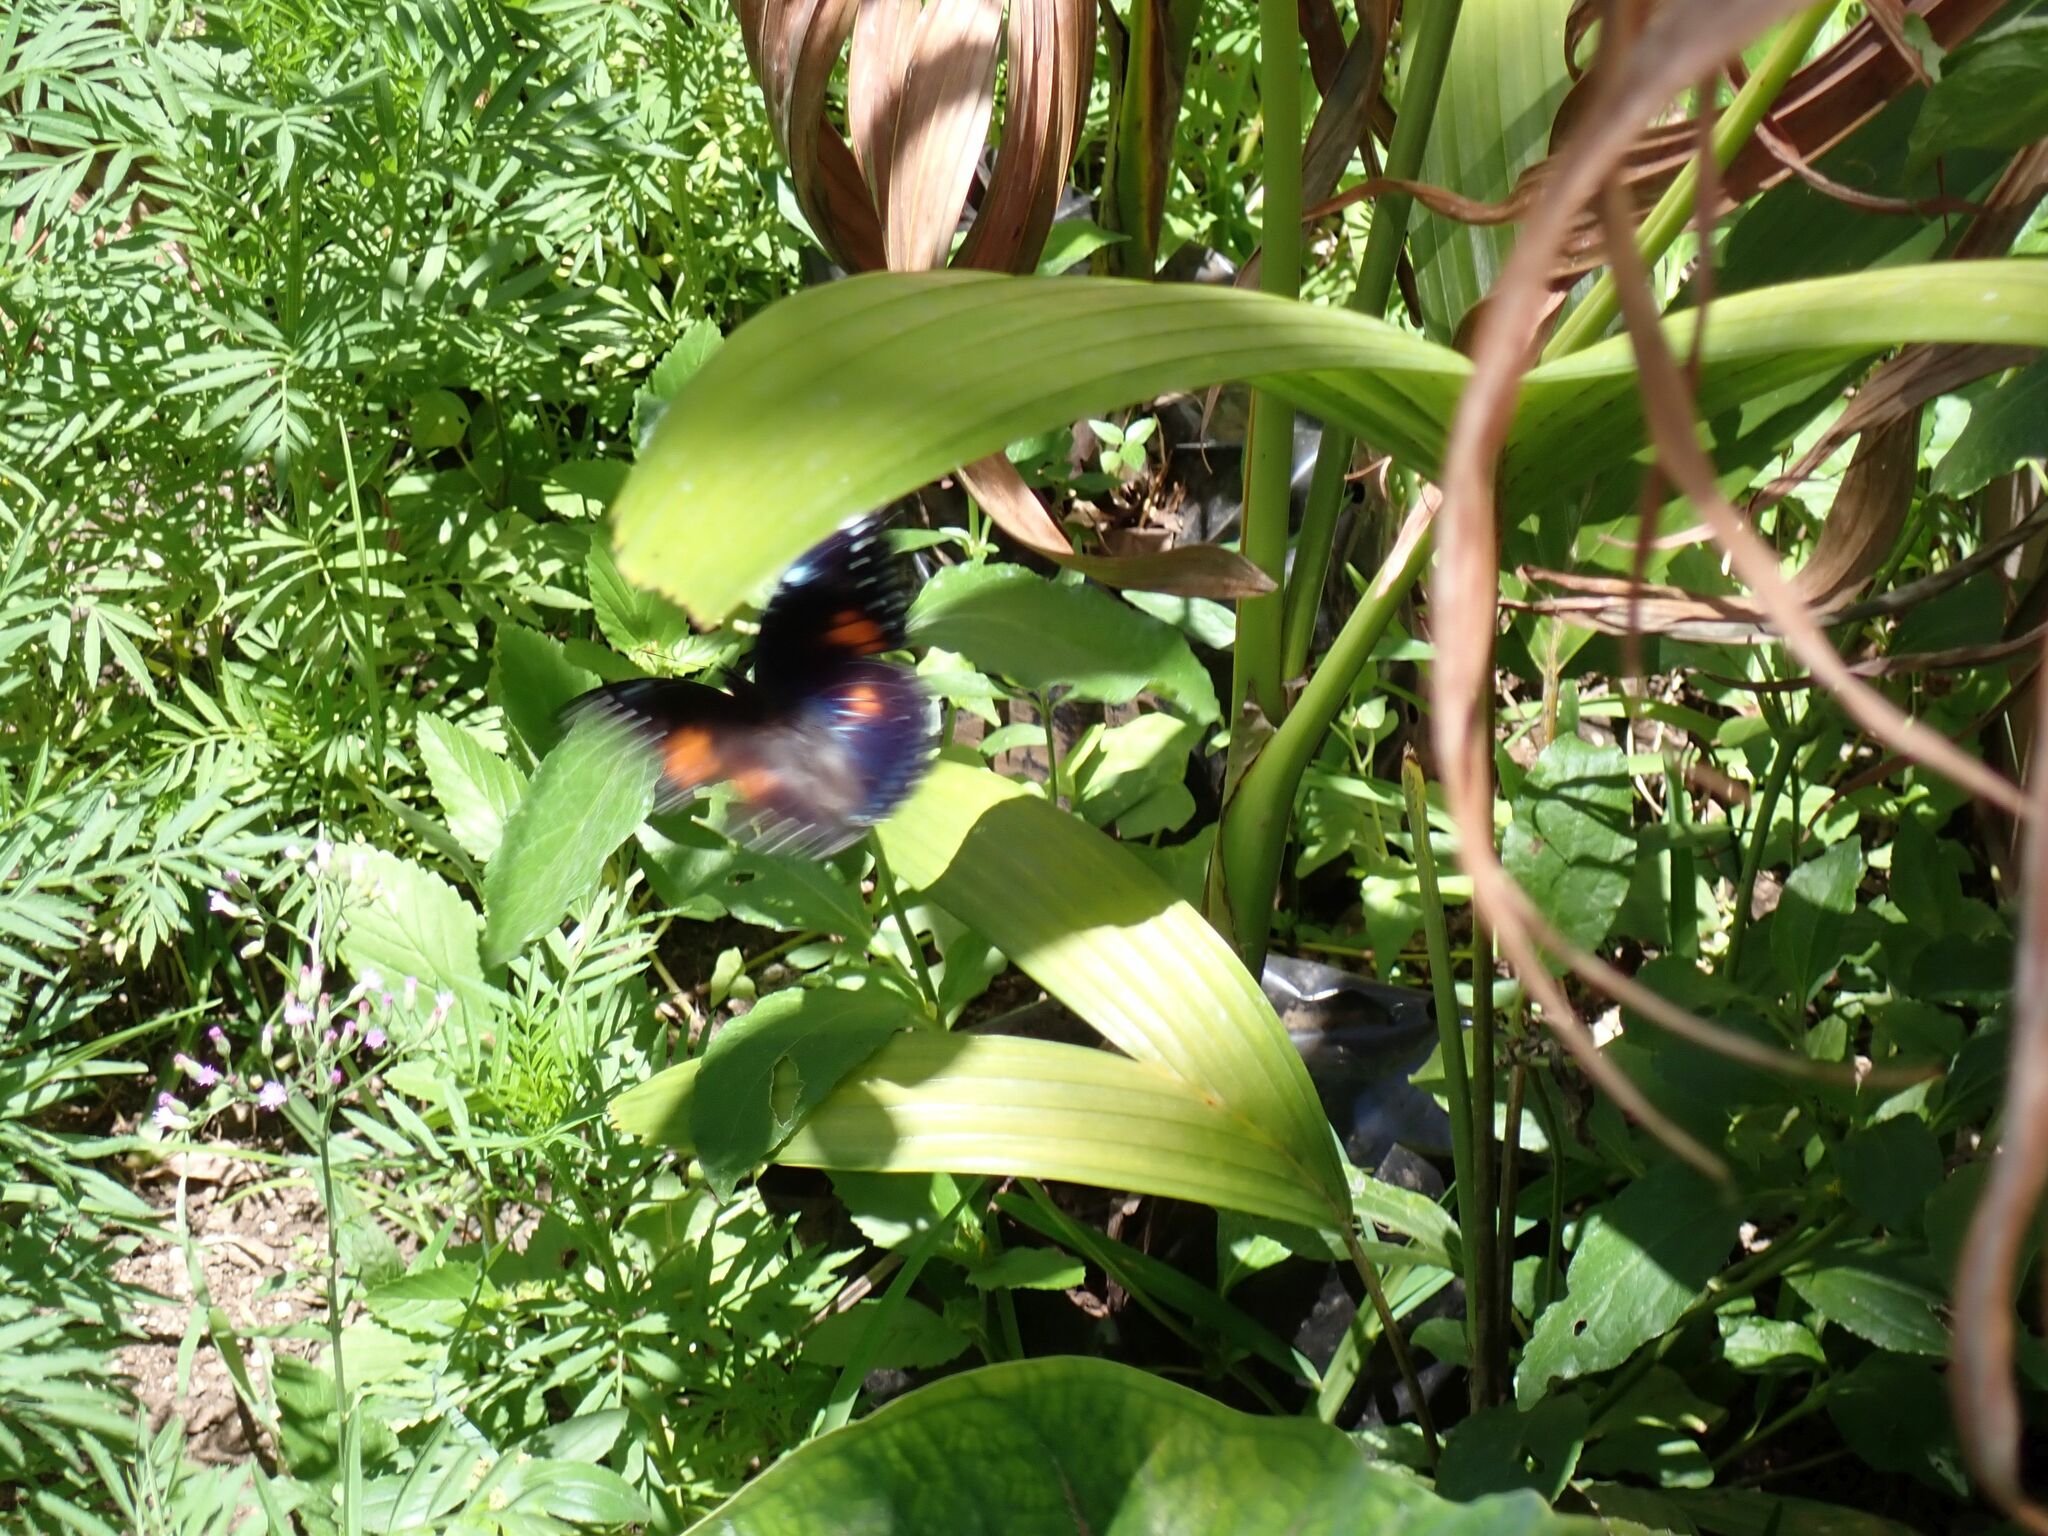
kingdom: Animalia
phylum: Arthropoda
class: Insecta
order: Lepidoptera
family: Nymphalidae
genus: Hypolimnas
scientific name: Hypolimnas bolina
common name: Great eggfly
